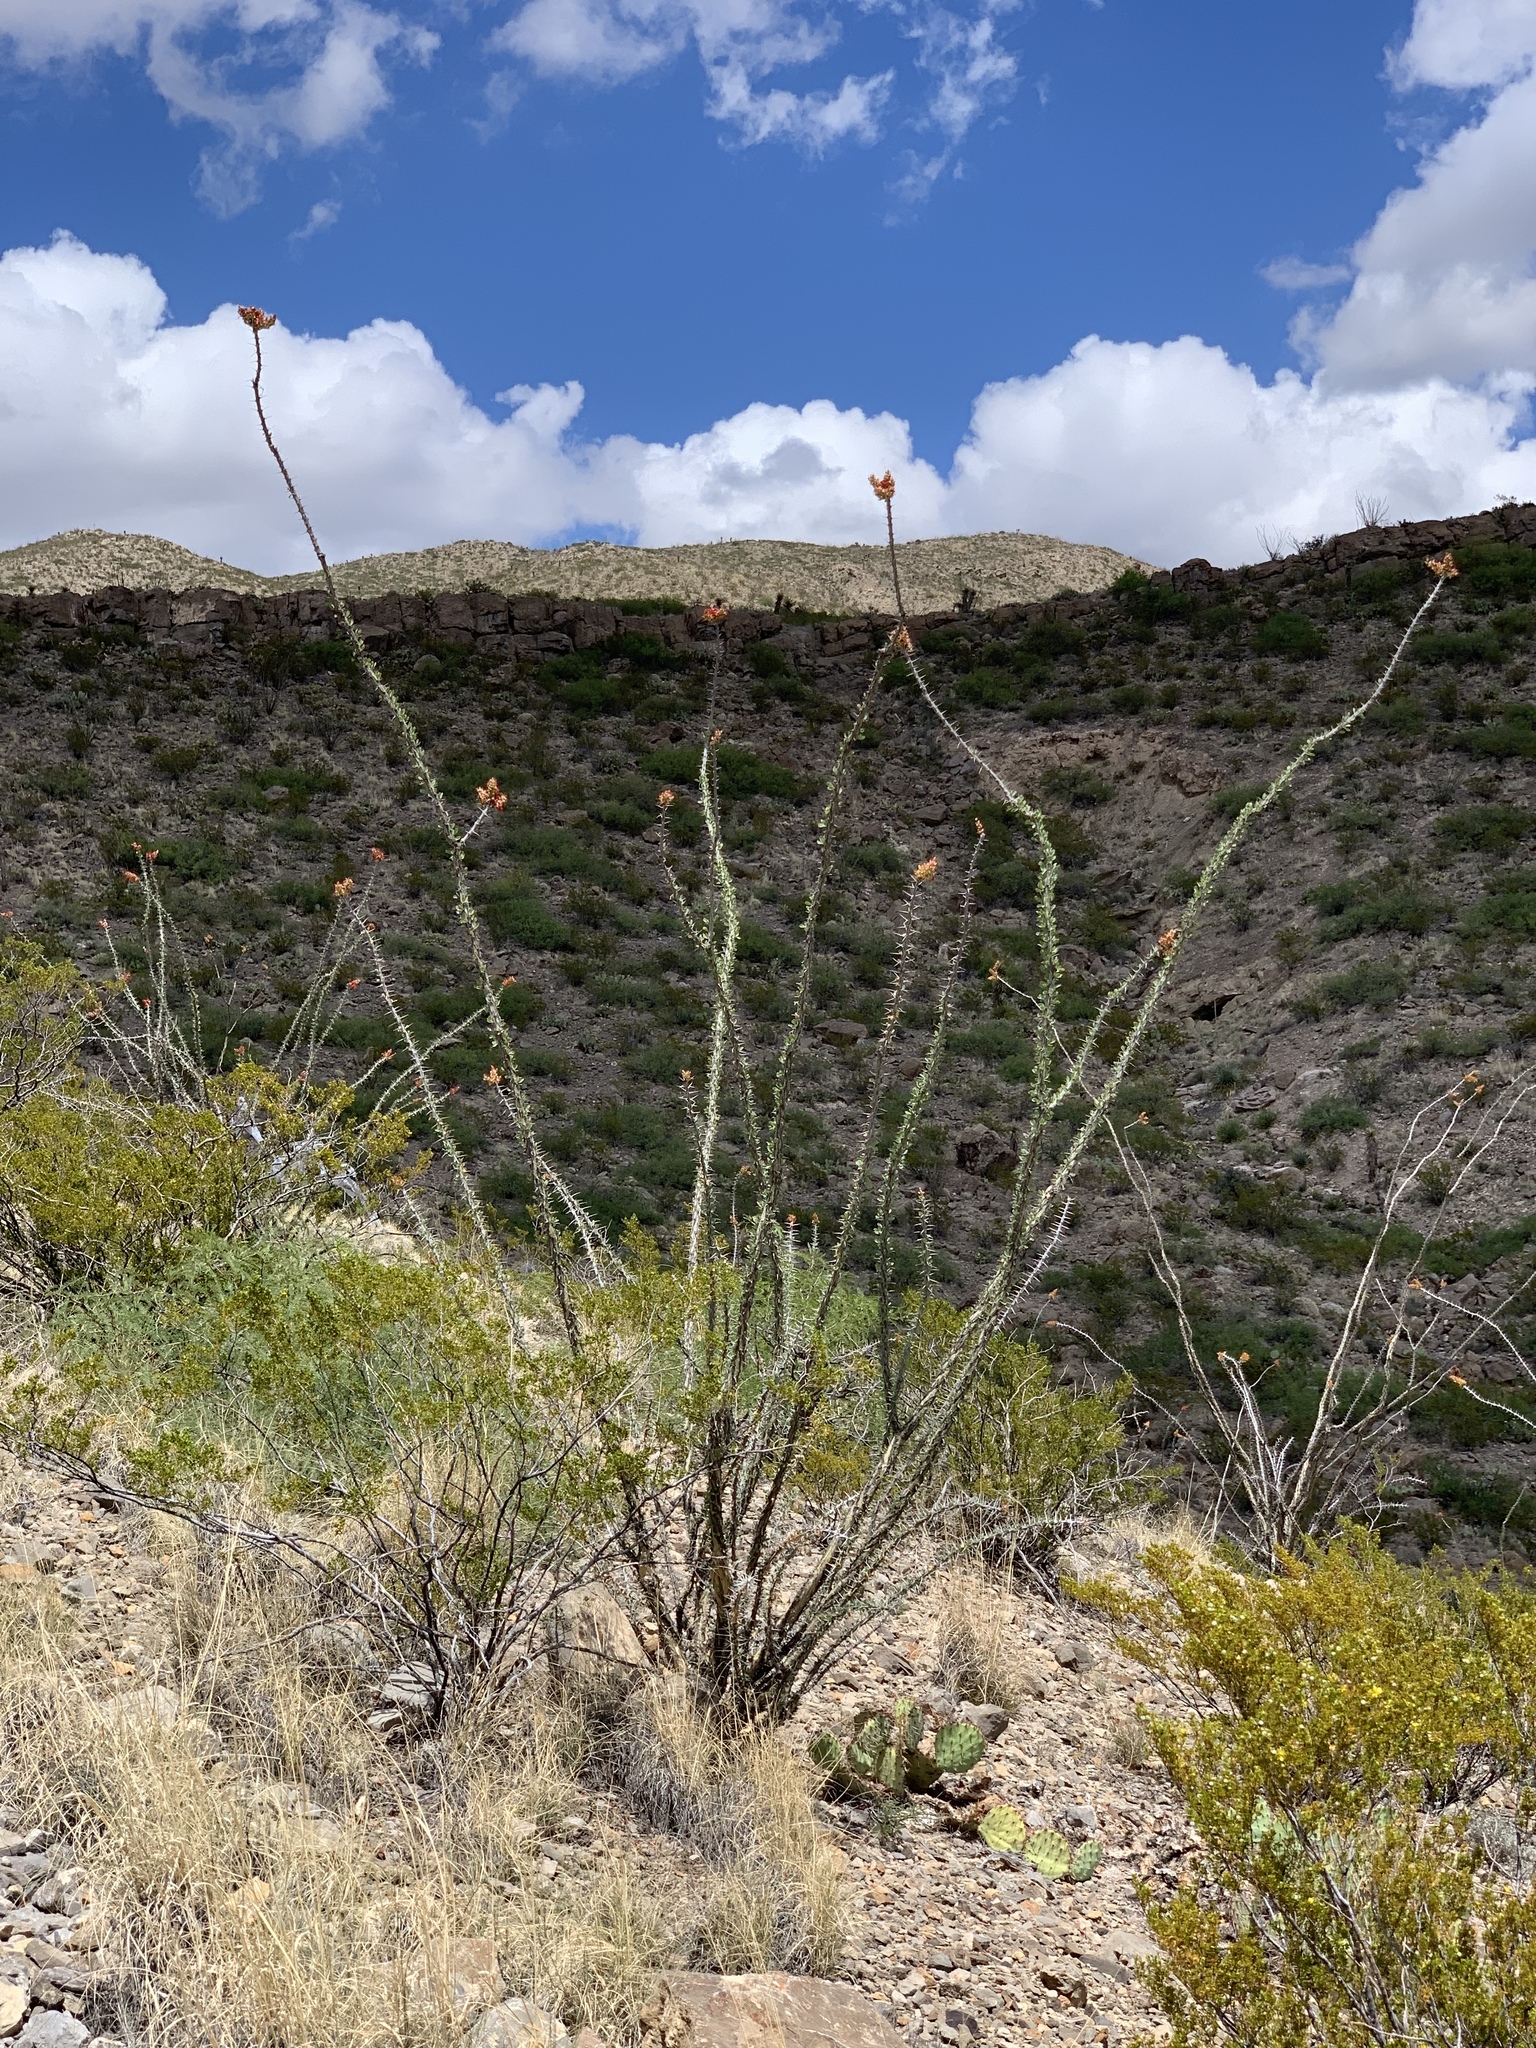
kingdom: Plantae
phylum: Tracheophyta
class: Magnoliopsida
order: Ericales
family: Fouquieriaceae
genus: Fouquieria
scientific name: Fouquieria splendens
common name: Vine-cactus
